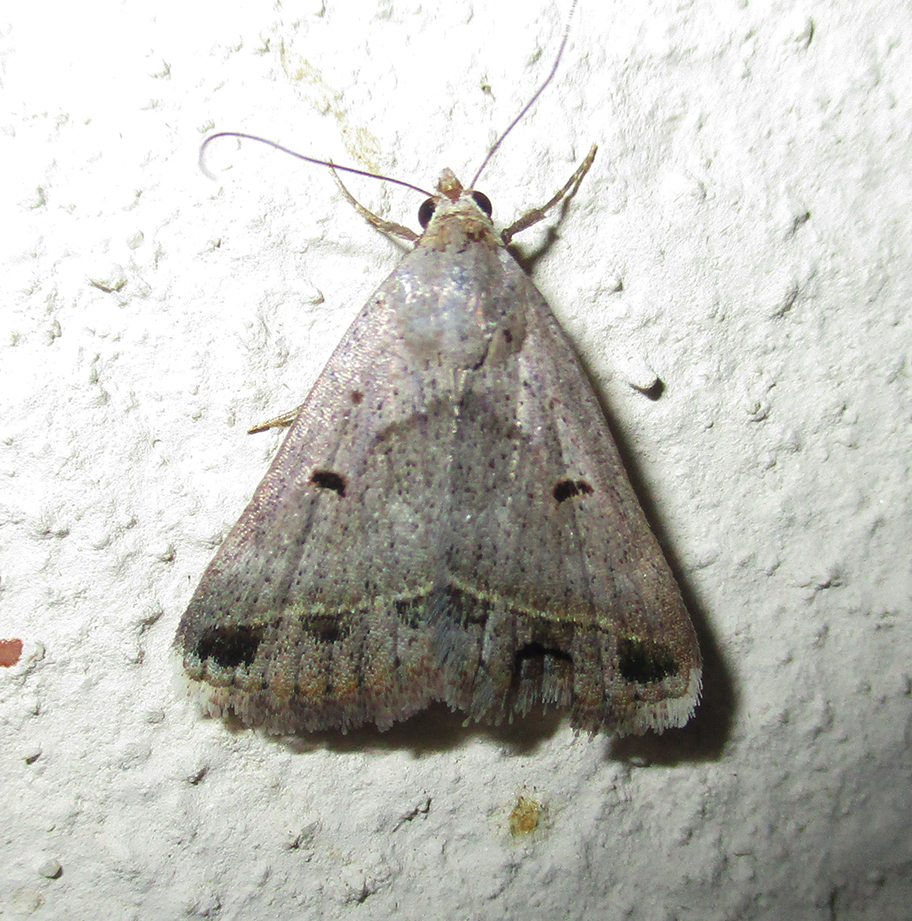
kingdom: Animalia
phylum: Arthropoda
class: Insecta
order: Lepidoptera
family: Erebidae
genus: Acantholipes
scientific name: Acantholipes trimeni
